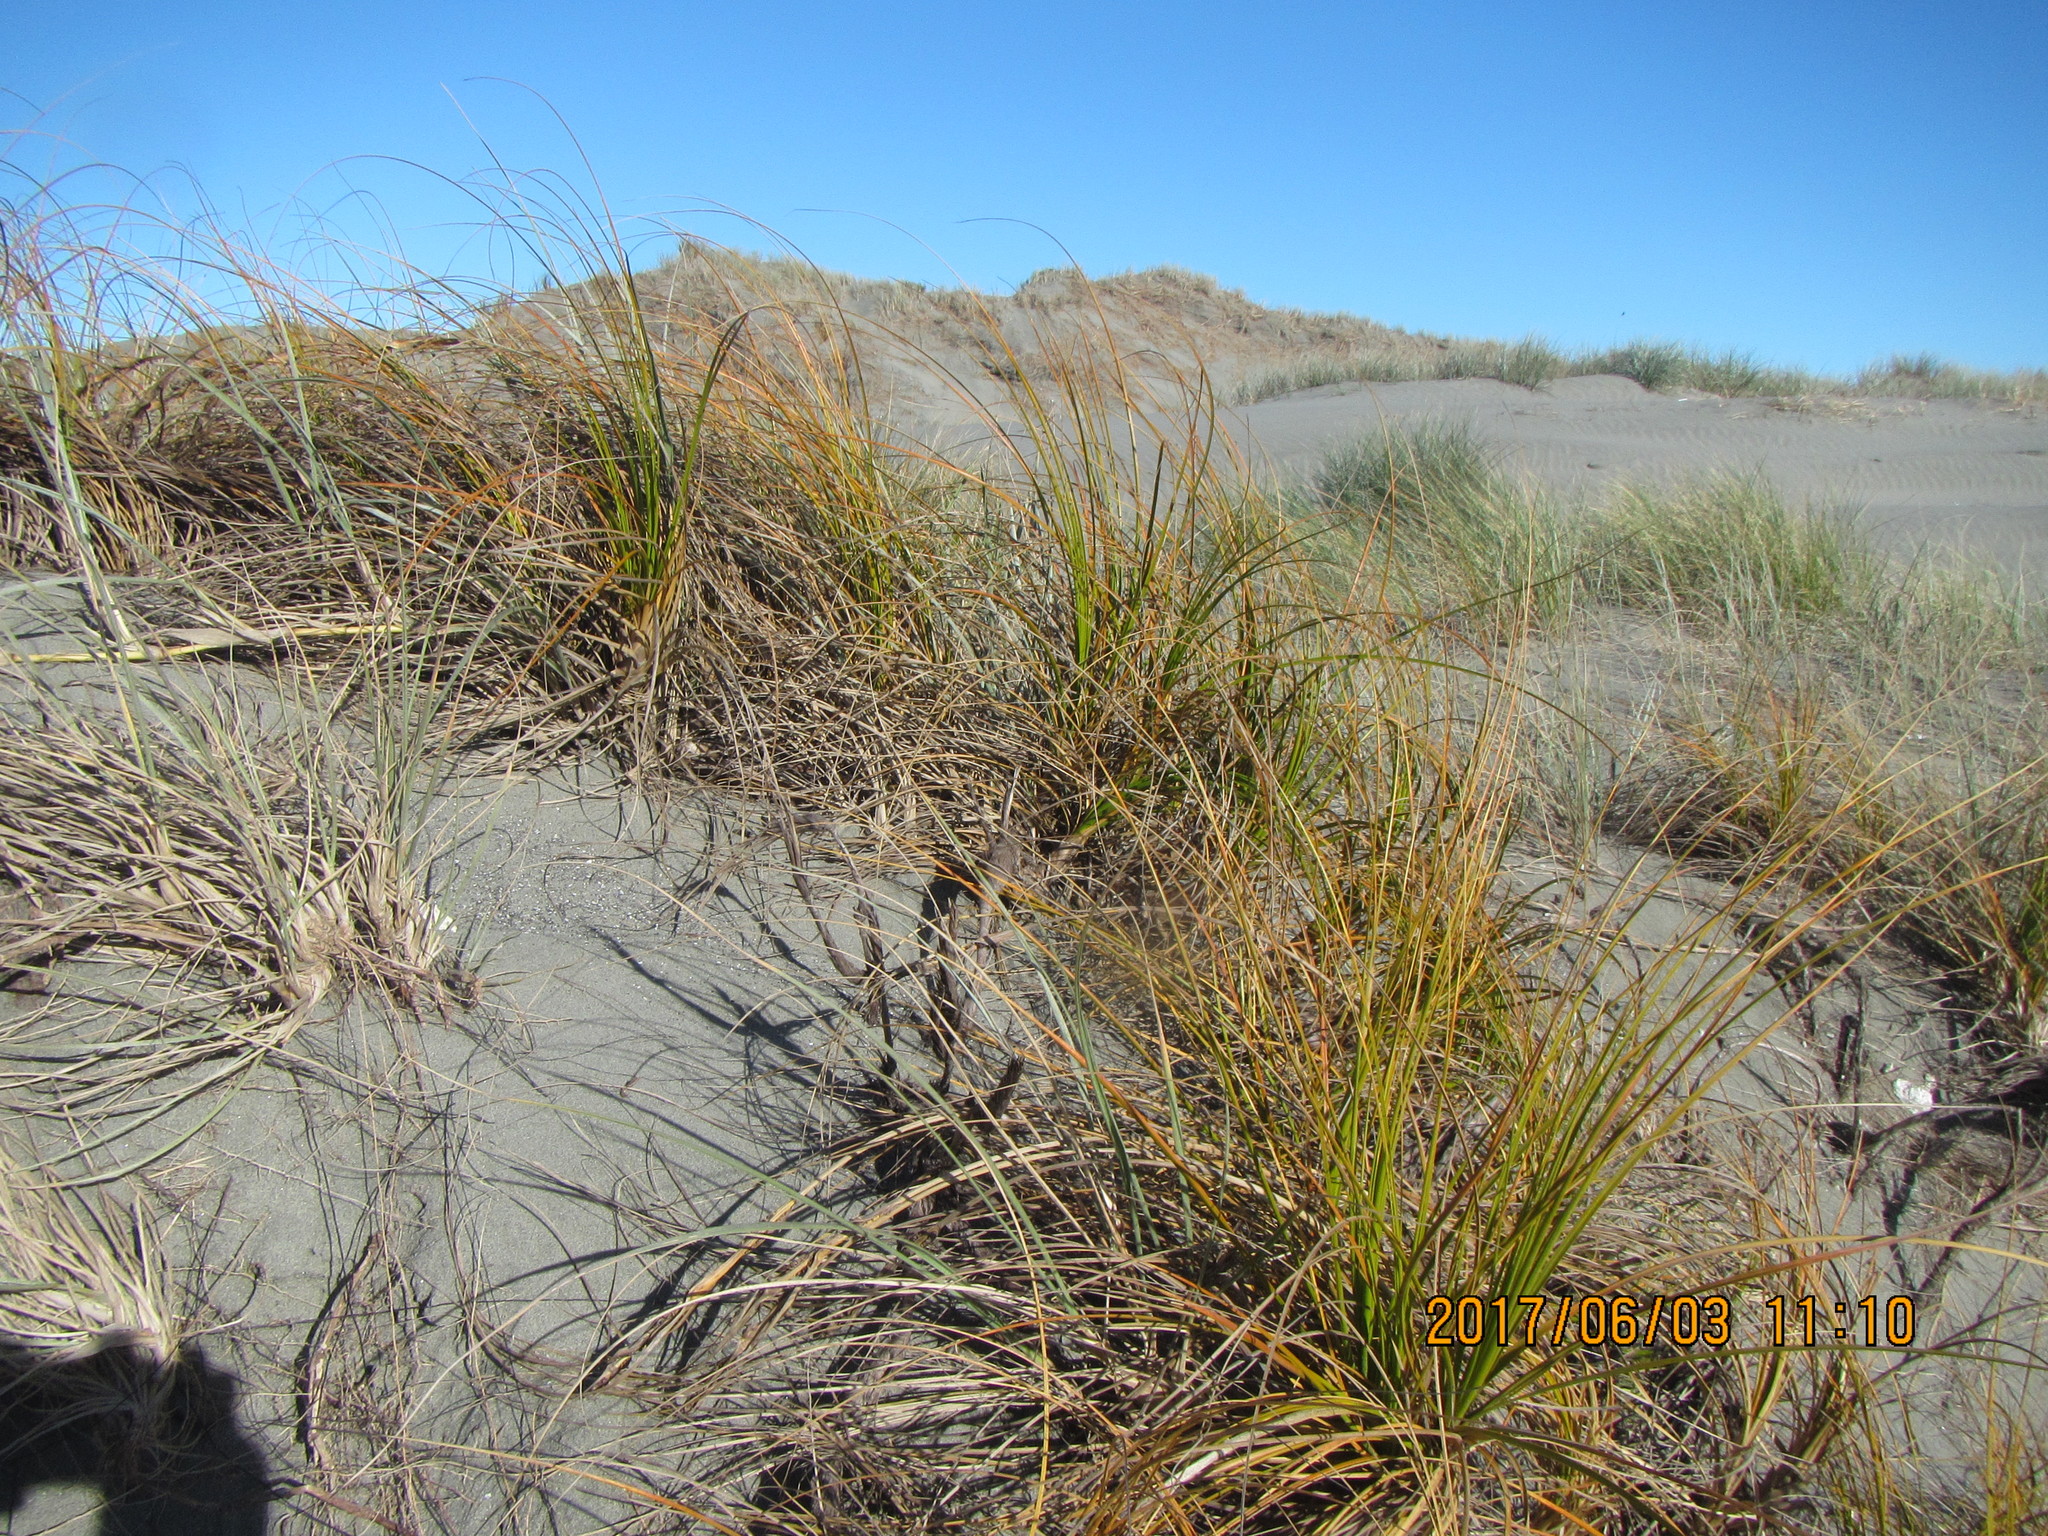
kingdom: Plantae
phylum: Tracheophyta
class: Liliopsida
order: Poales
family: Cyperaceae
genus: Ficinia
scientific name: Ficinia spiralis
